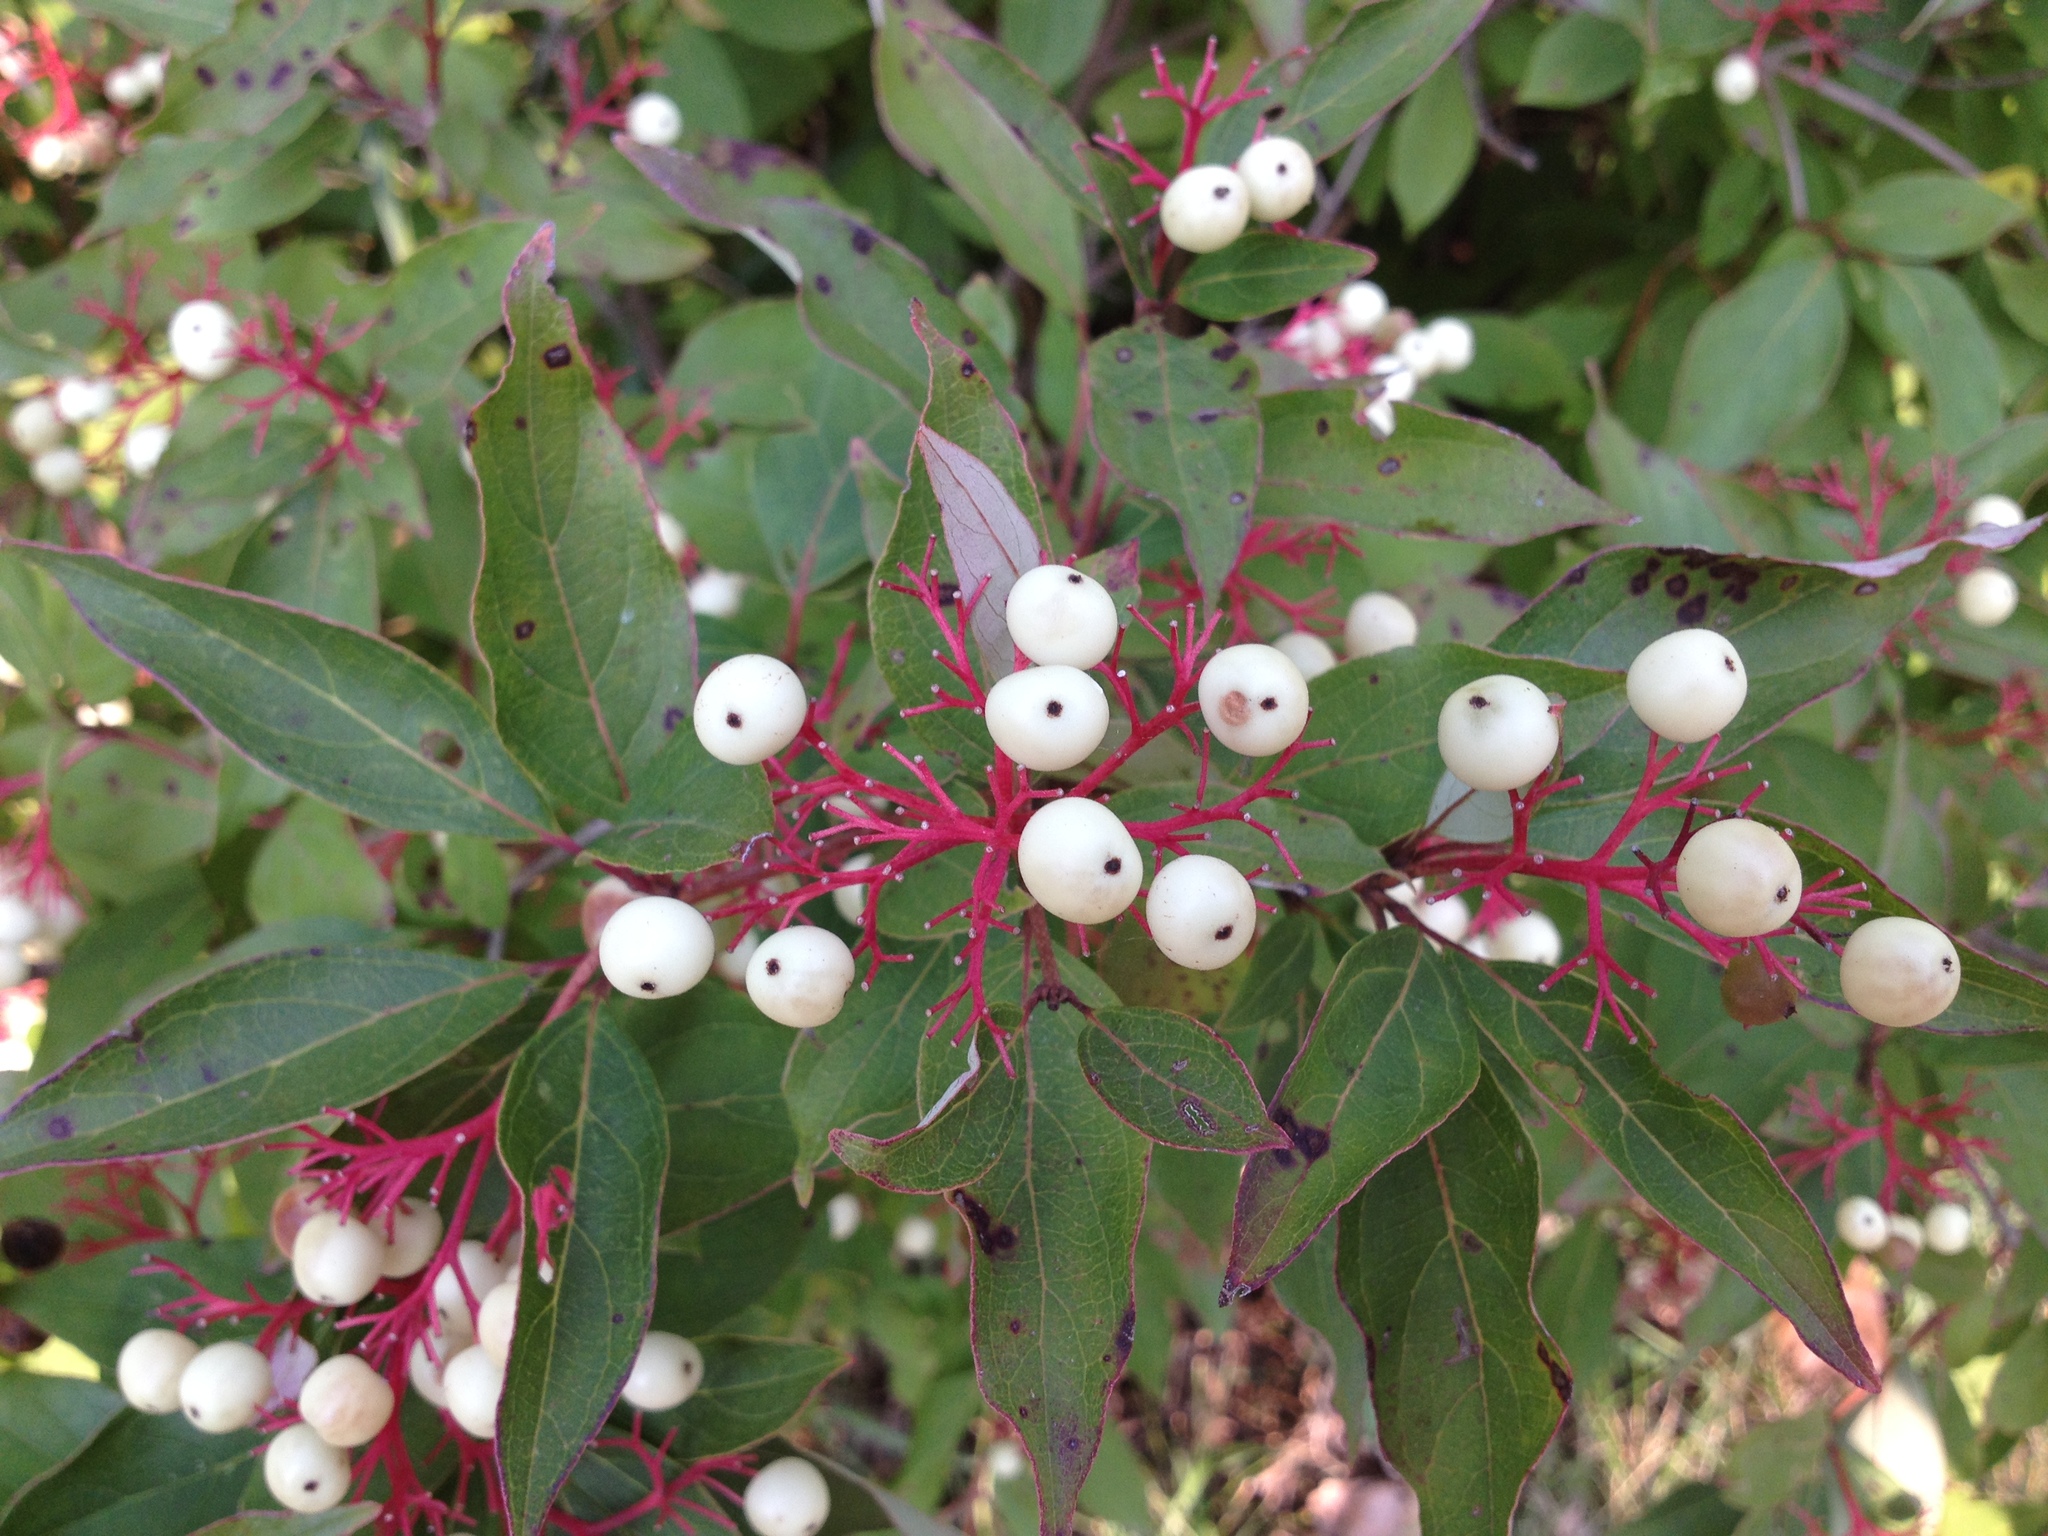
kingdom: Plantae
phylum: Tracheophyta
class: Magnoliopsida
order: Cornales
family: Cornaceae
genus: Cornus
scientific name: Cornus racemosa
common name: Panicled dogwood
